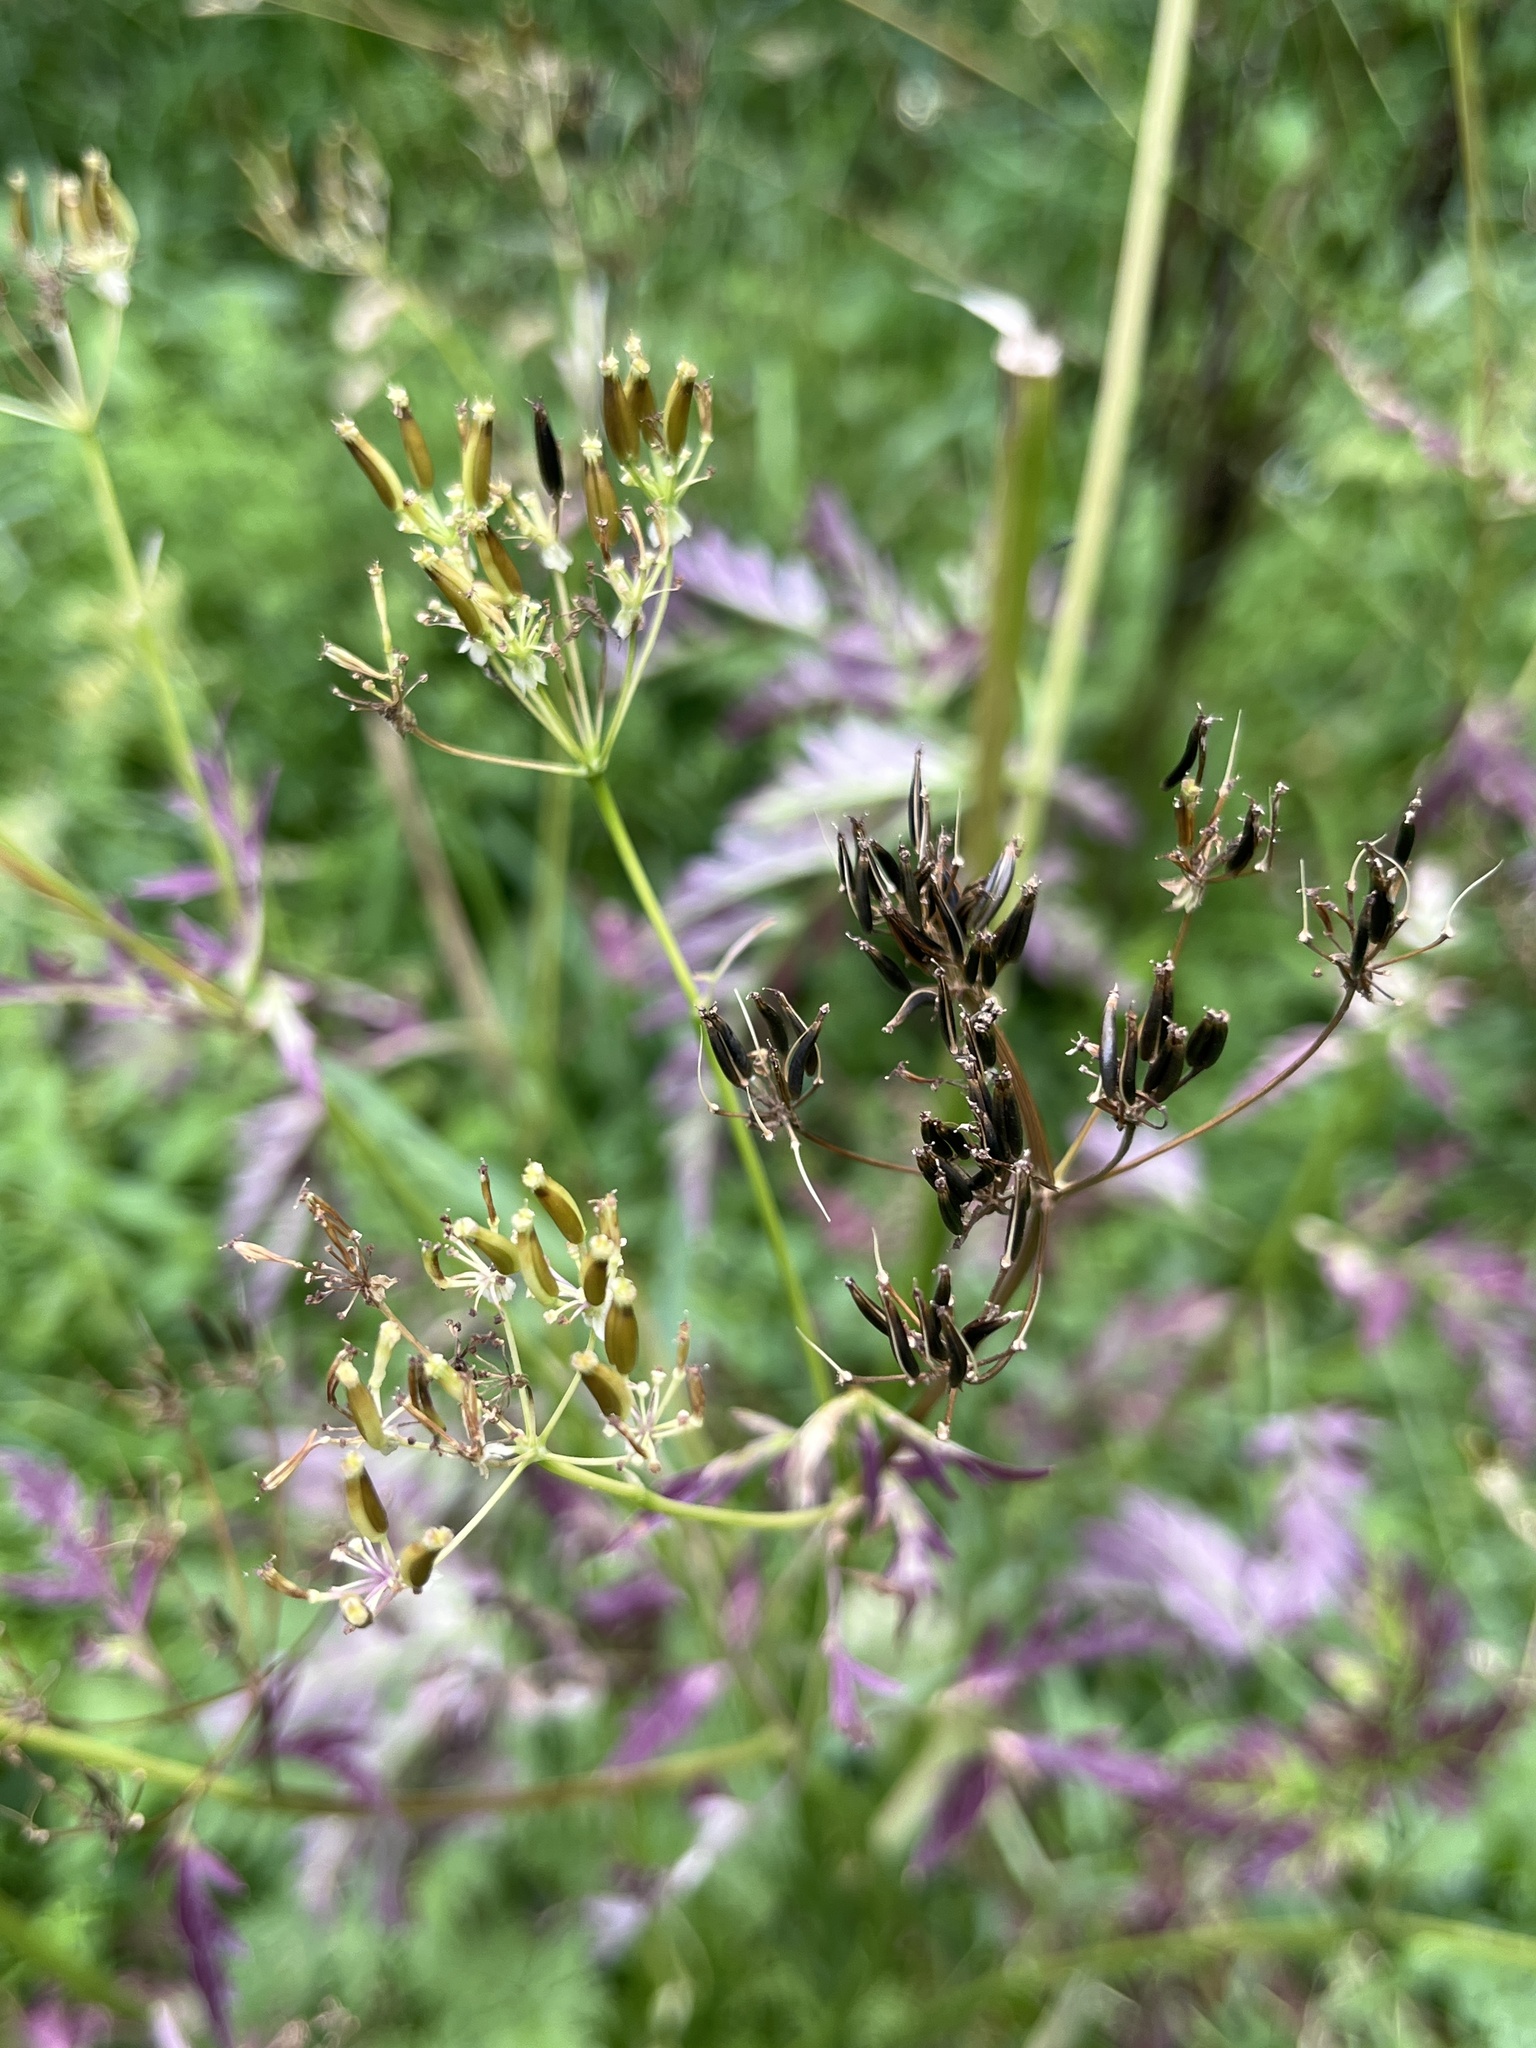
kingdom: Plantae
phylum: Tracheophyta
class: Magnoliopsida
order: Apiales
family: Apiaceae
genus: Anthriscus
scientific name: Anthriscus sylvestris
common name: Cow parsley
